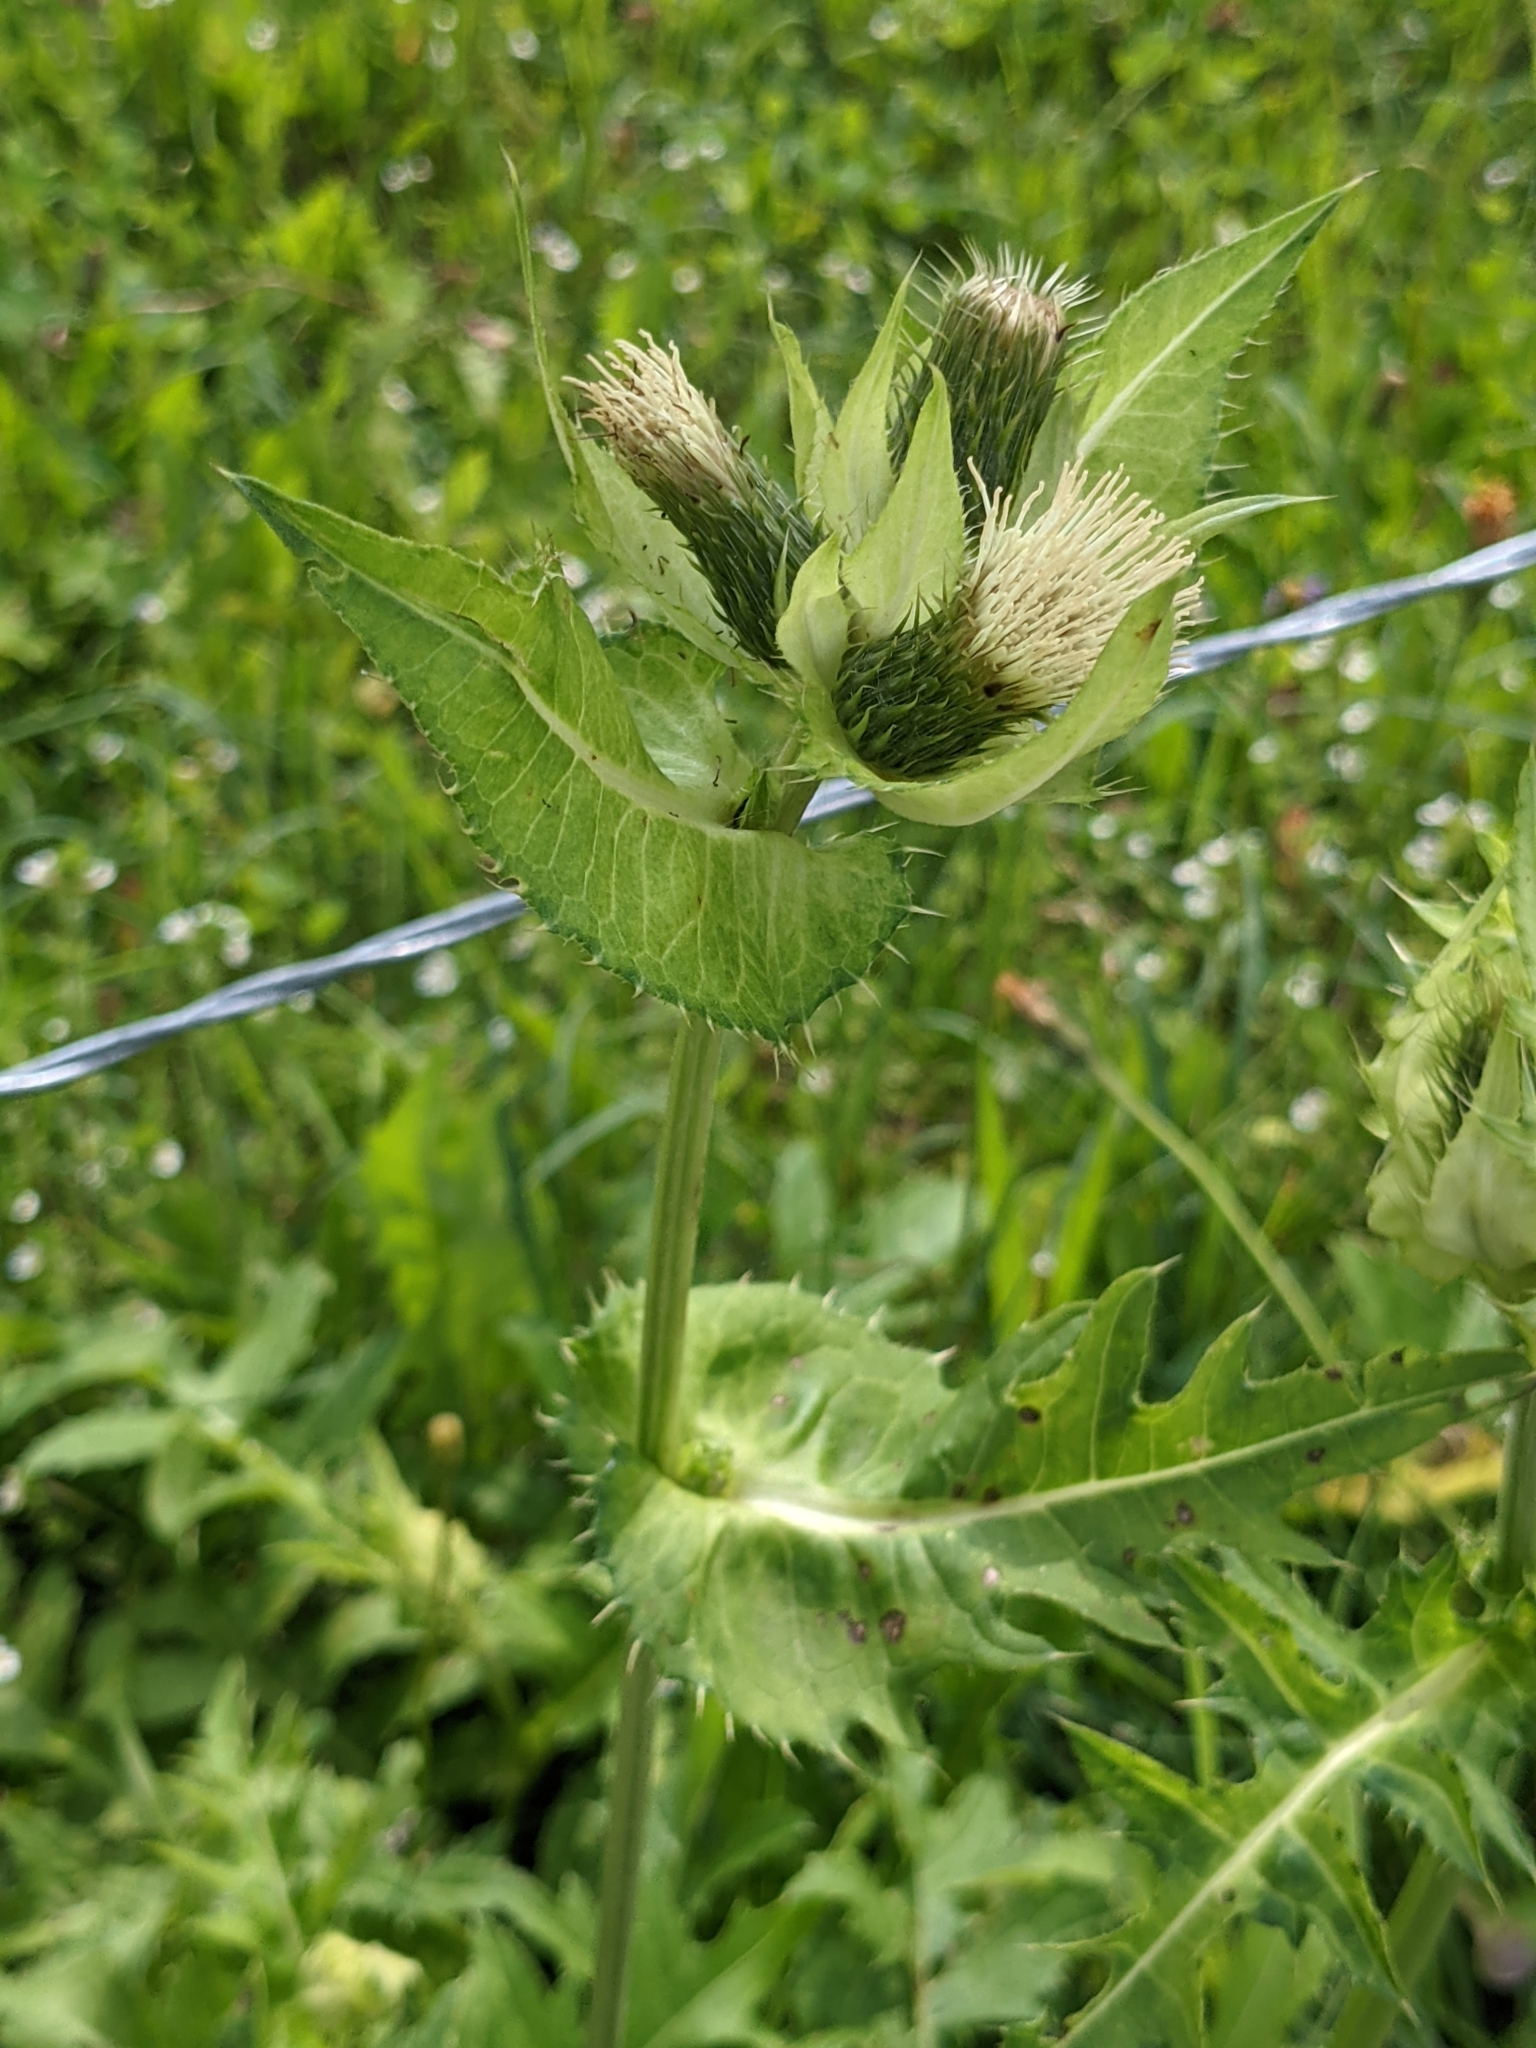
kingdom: Plantae
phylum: Tracheophyta
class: Magnoliopsida
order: Asterales
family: Asteraceae
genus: Cirsium
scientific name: Cirsium oleraceum
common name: Cabbage thistle
